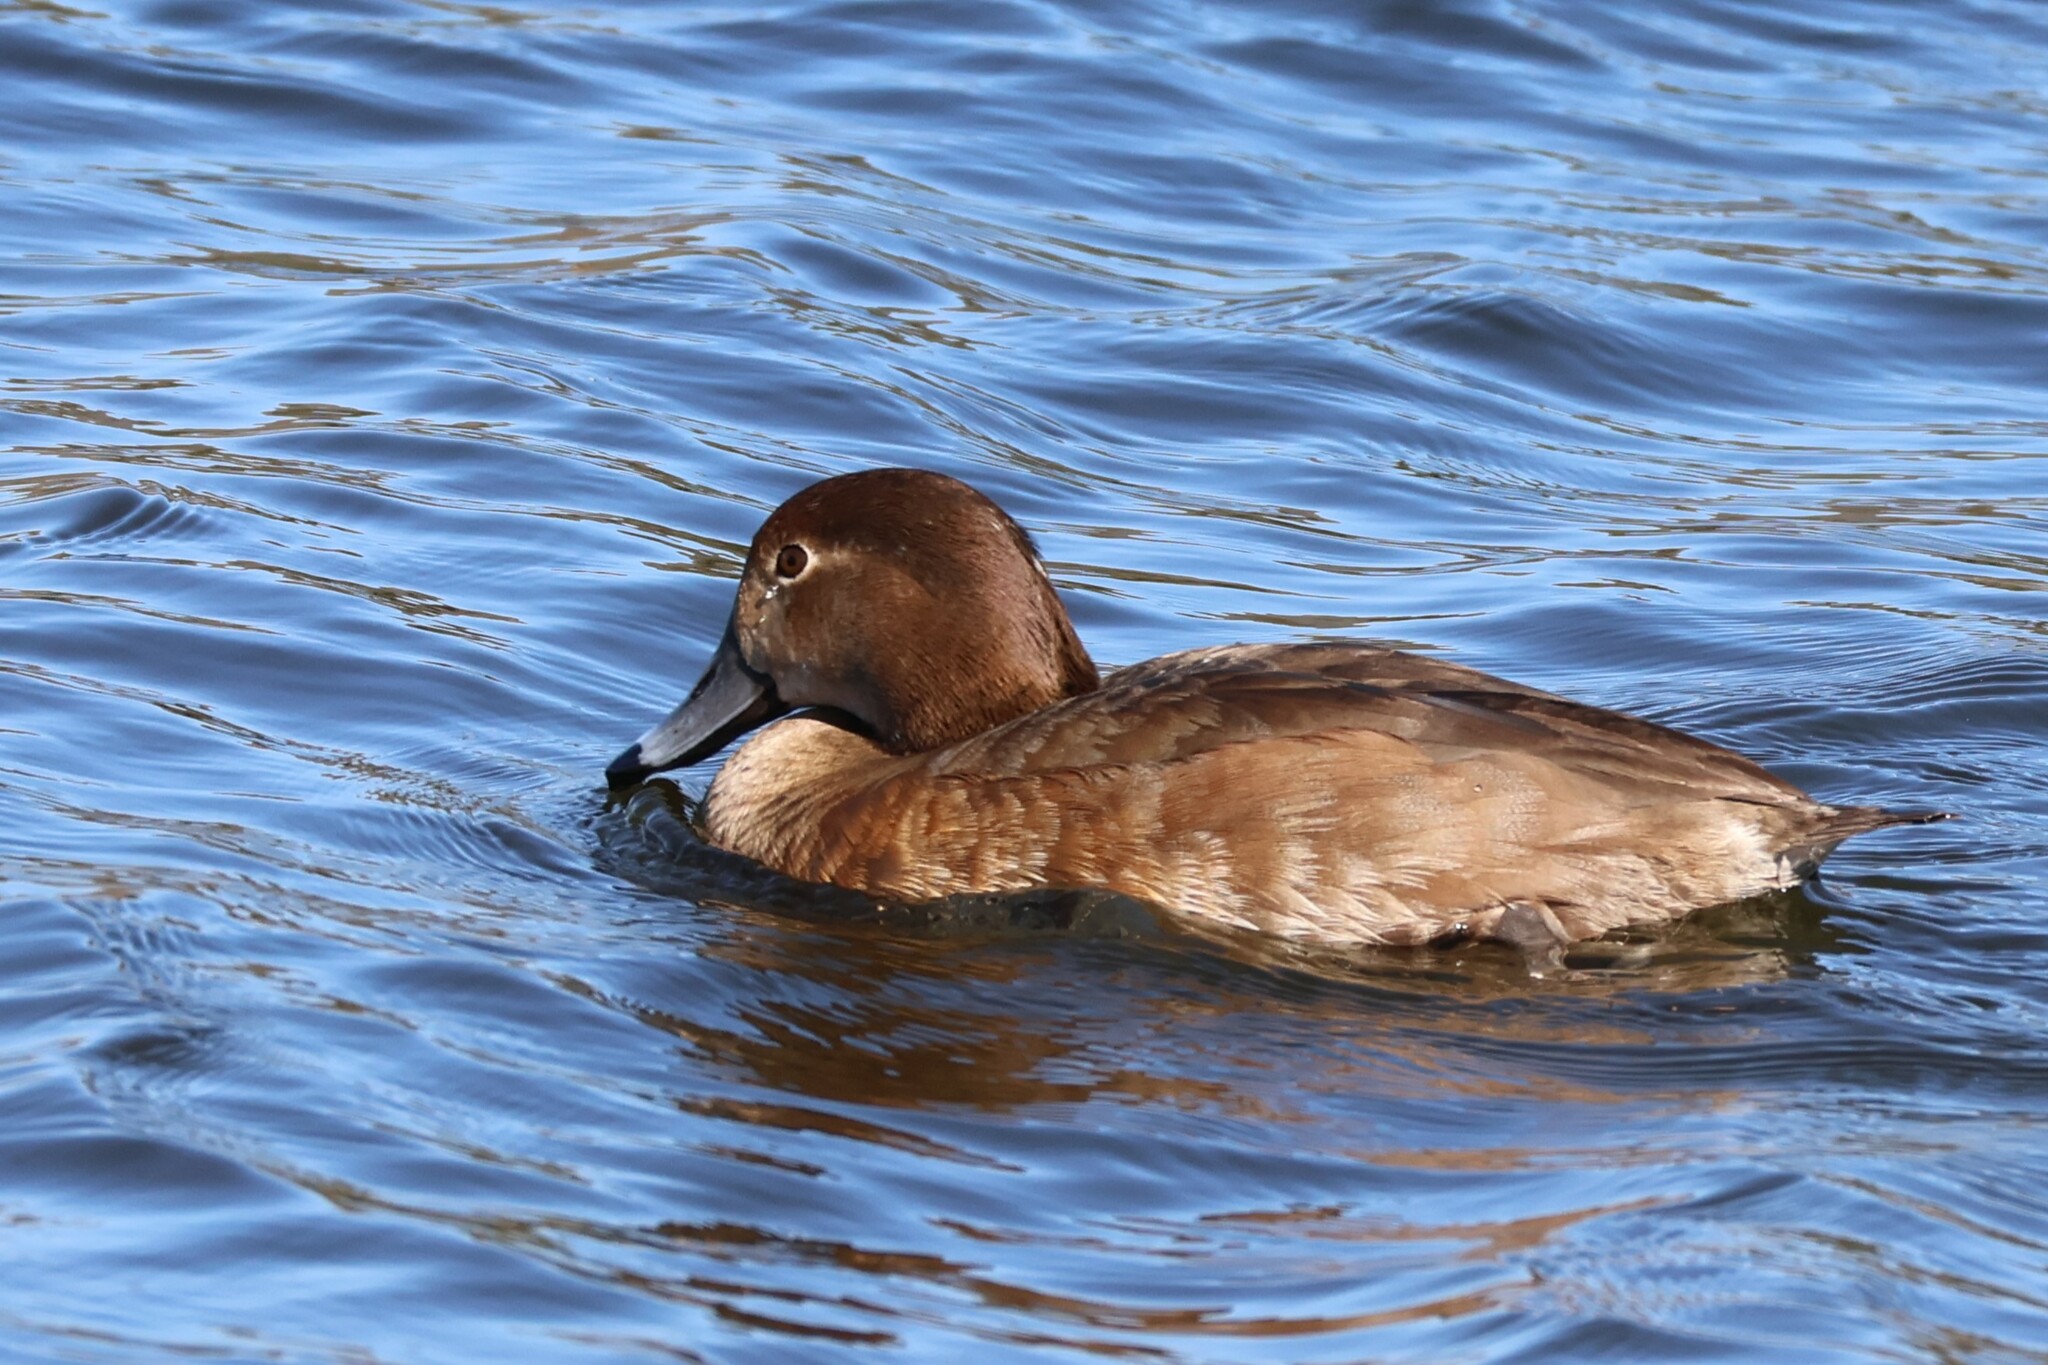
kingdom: Animalia
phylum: Chordata
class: Aves
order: Anseriformes
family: Anatidae
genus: Aythya
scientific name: Aythya americana
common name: Redhead
